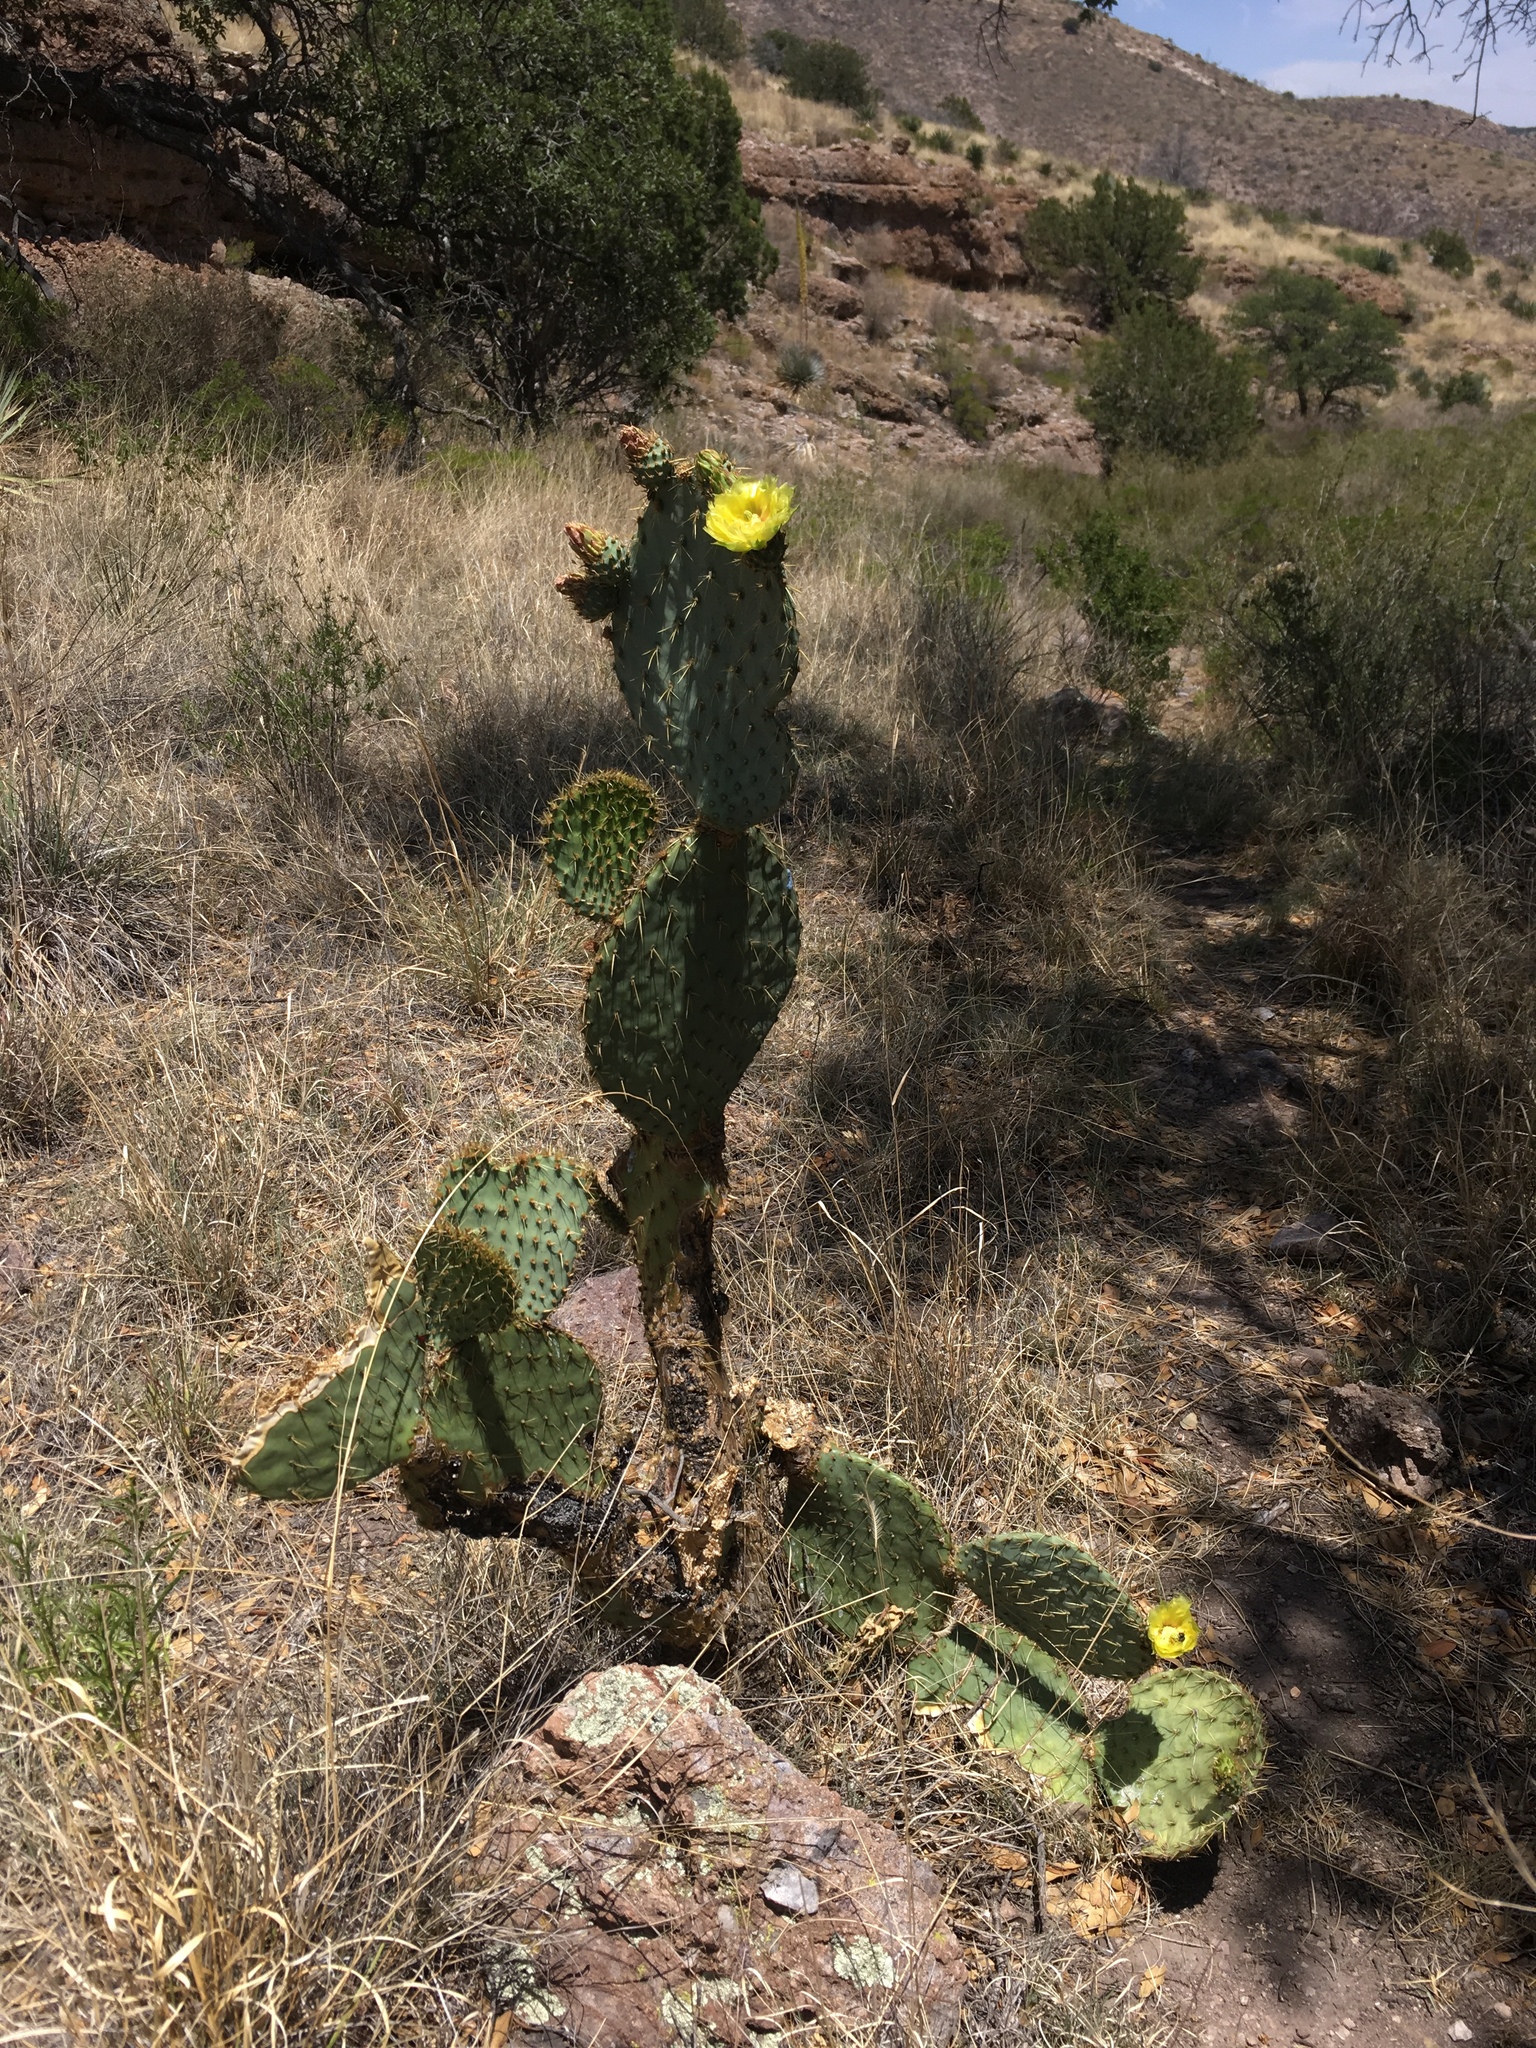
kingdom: Plantae
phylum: Tracheophyta
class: Magnoliopsida
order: Caryophyllales
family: Cactaceae
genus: Opuntia
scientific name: Opuntia chlorotica
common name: Dollar-joint prickly-pear
